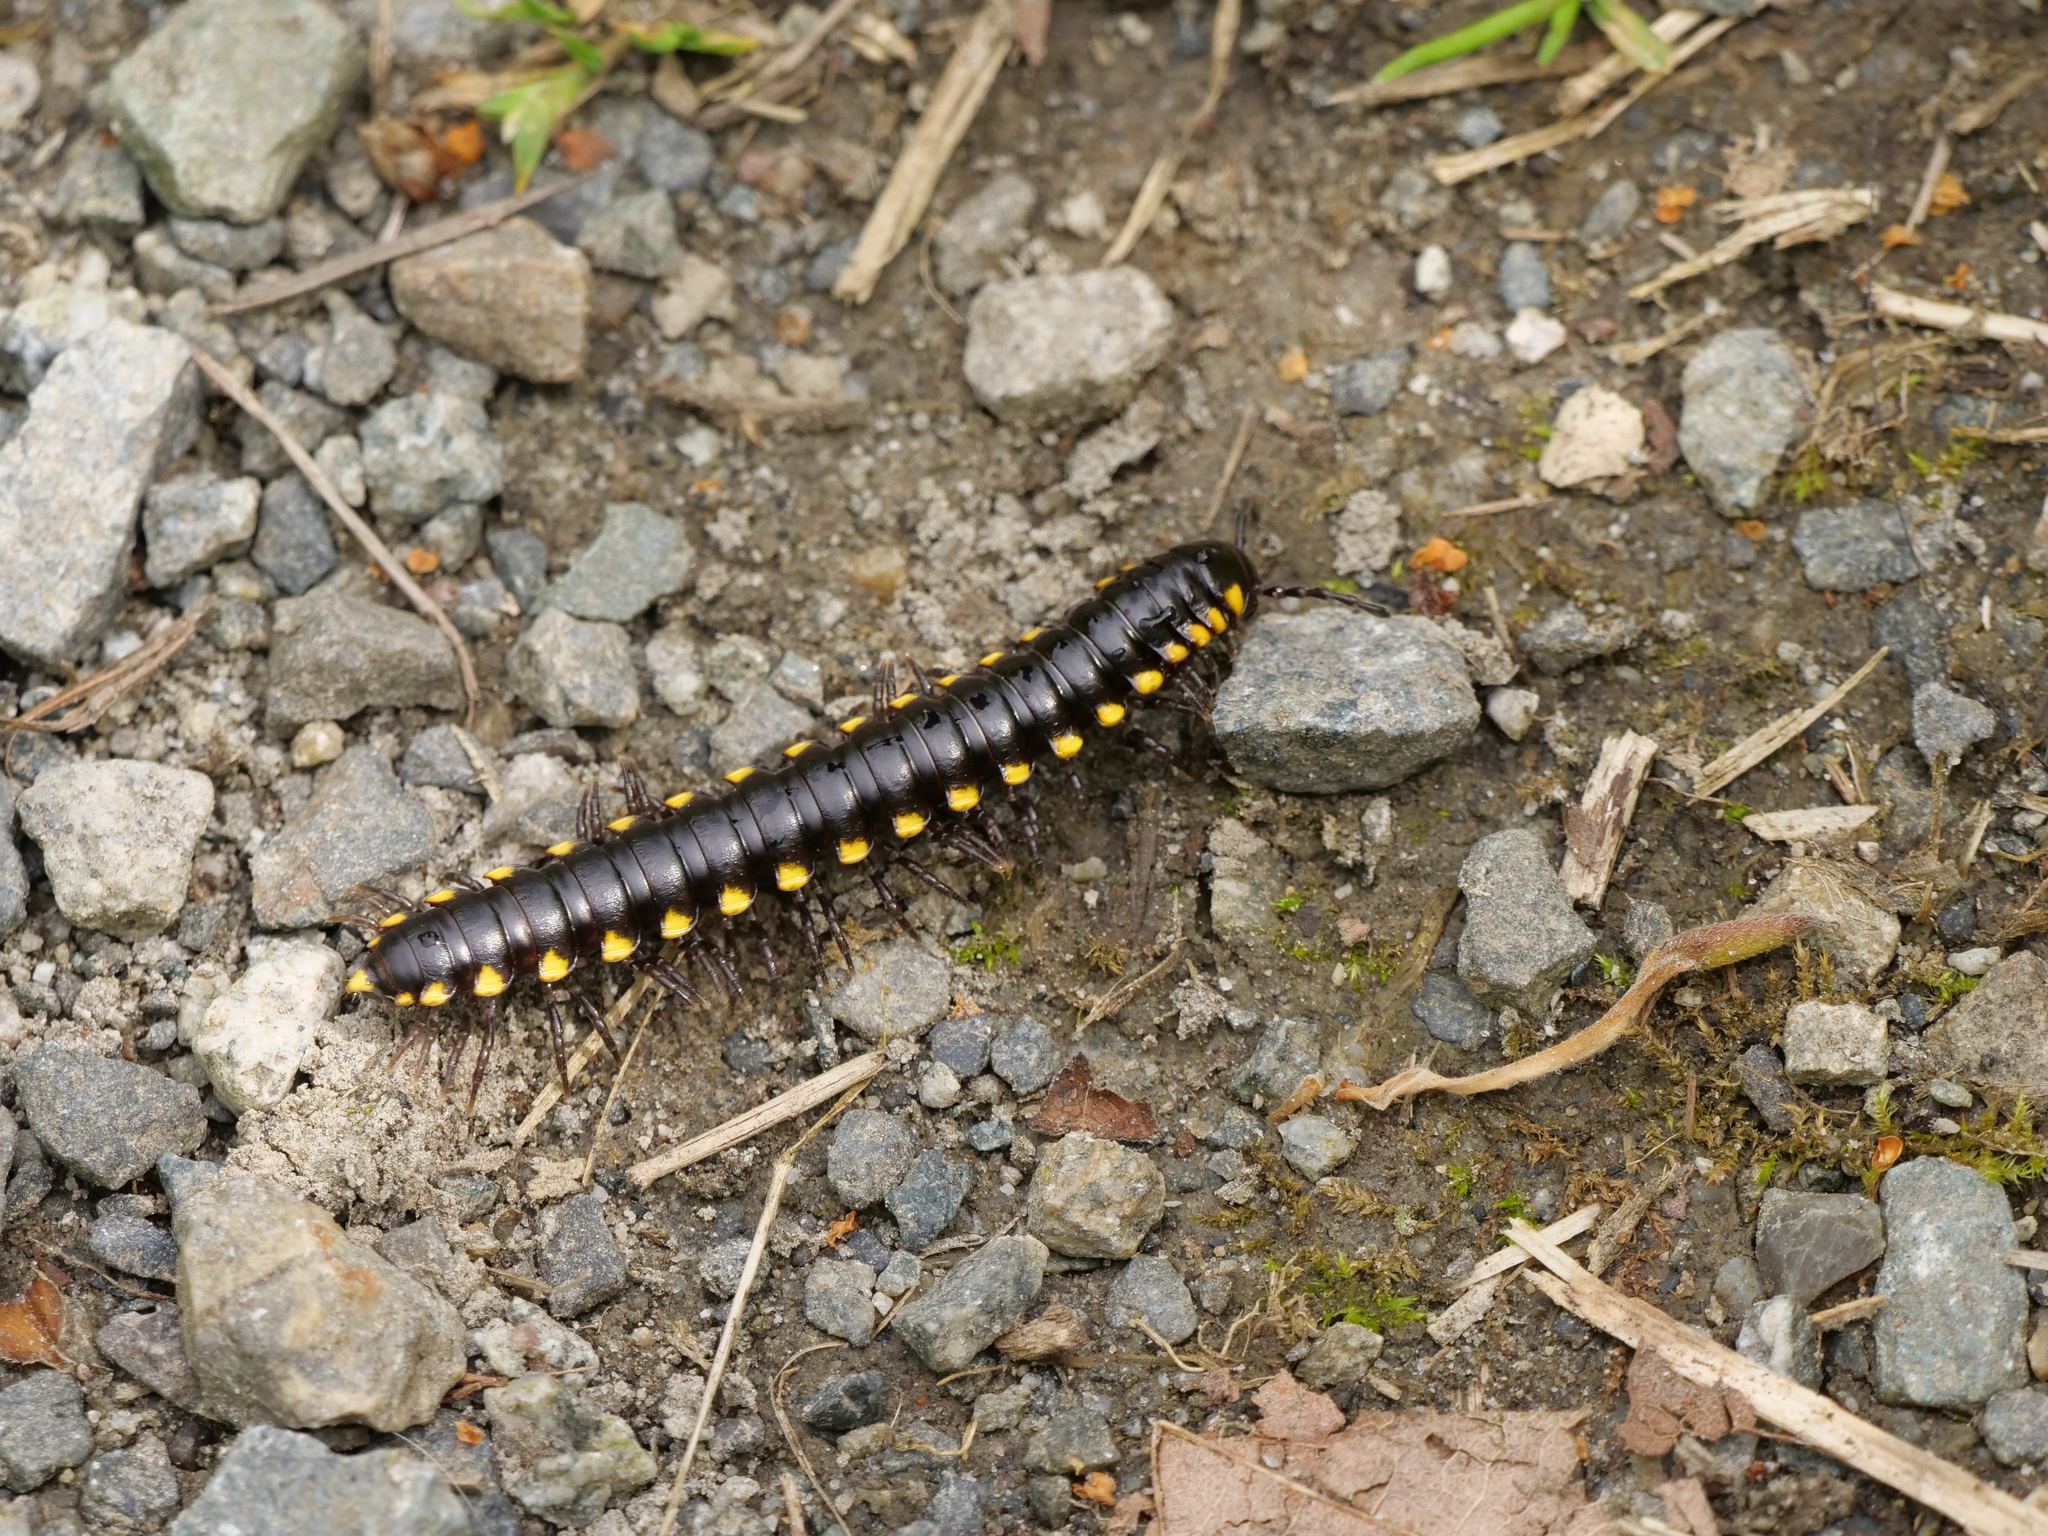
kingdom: Animalia
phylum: Arthropoda
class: Diplopoda
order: Polydesmida
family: Xystodesmidae
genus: Harpaphe
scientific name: Harpaphe haydeniana
